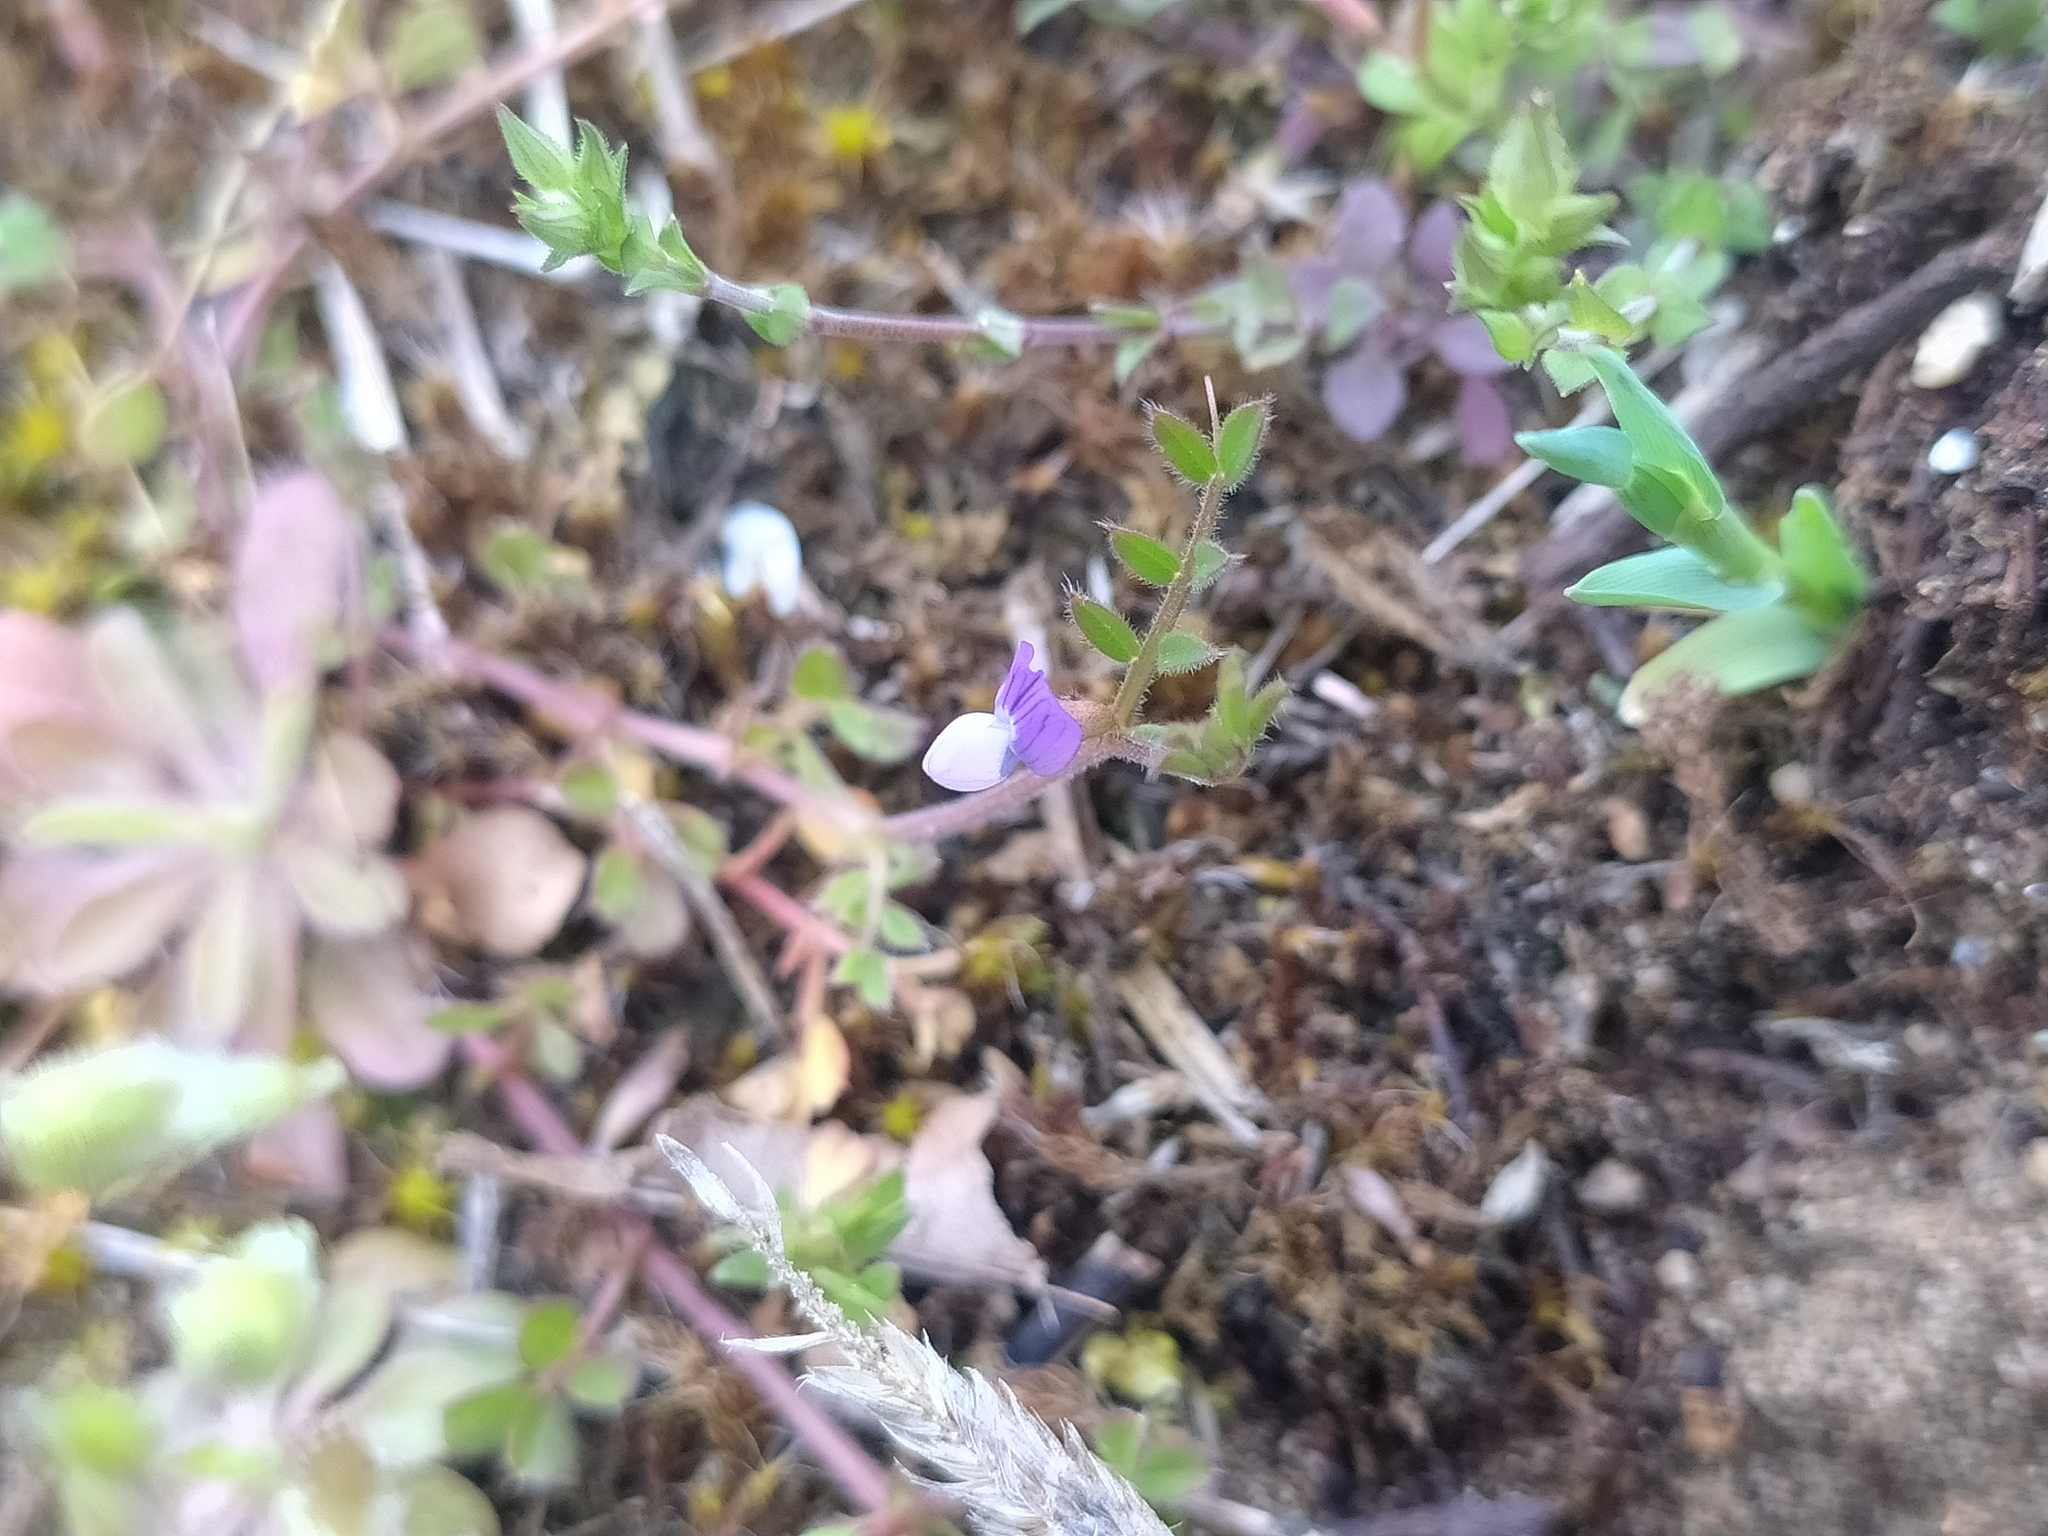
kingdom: Plantae
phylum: Tracheophyta
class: Magnoliopsida
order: Fabales
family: Fabaceae
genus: Vicia
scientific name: Vicia lathyroides
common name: Spring vetch
